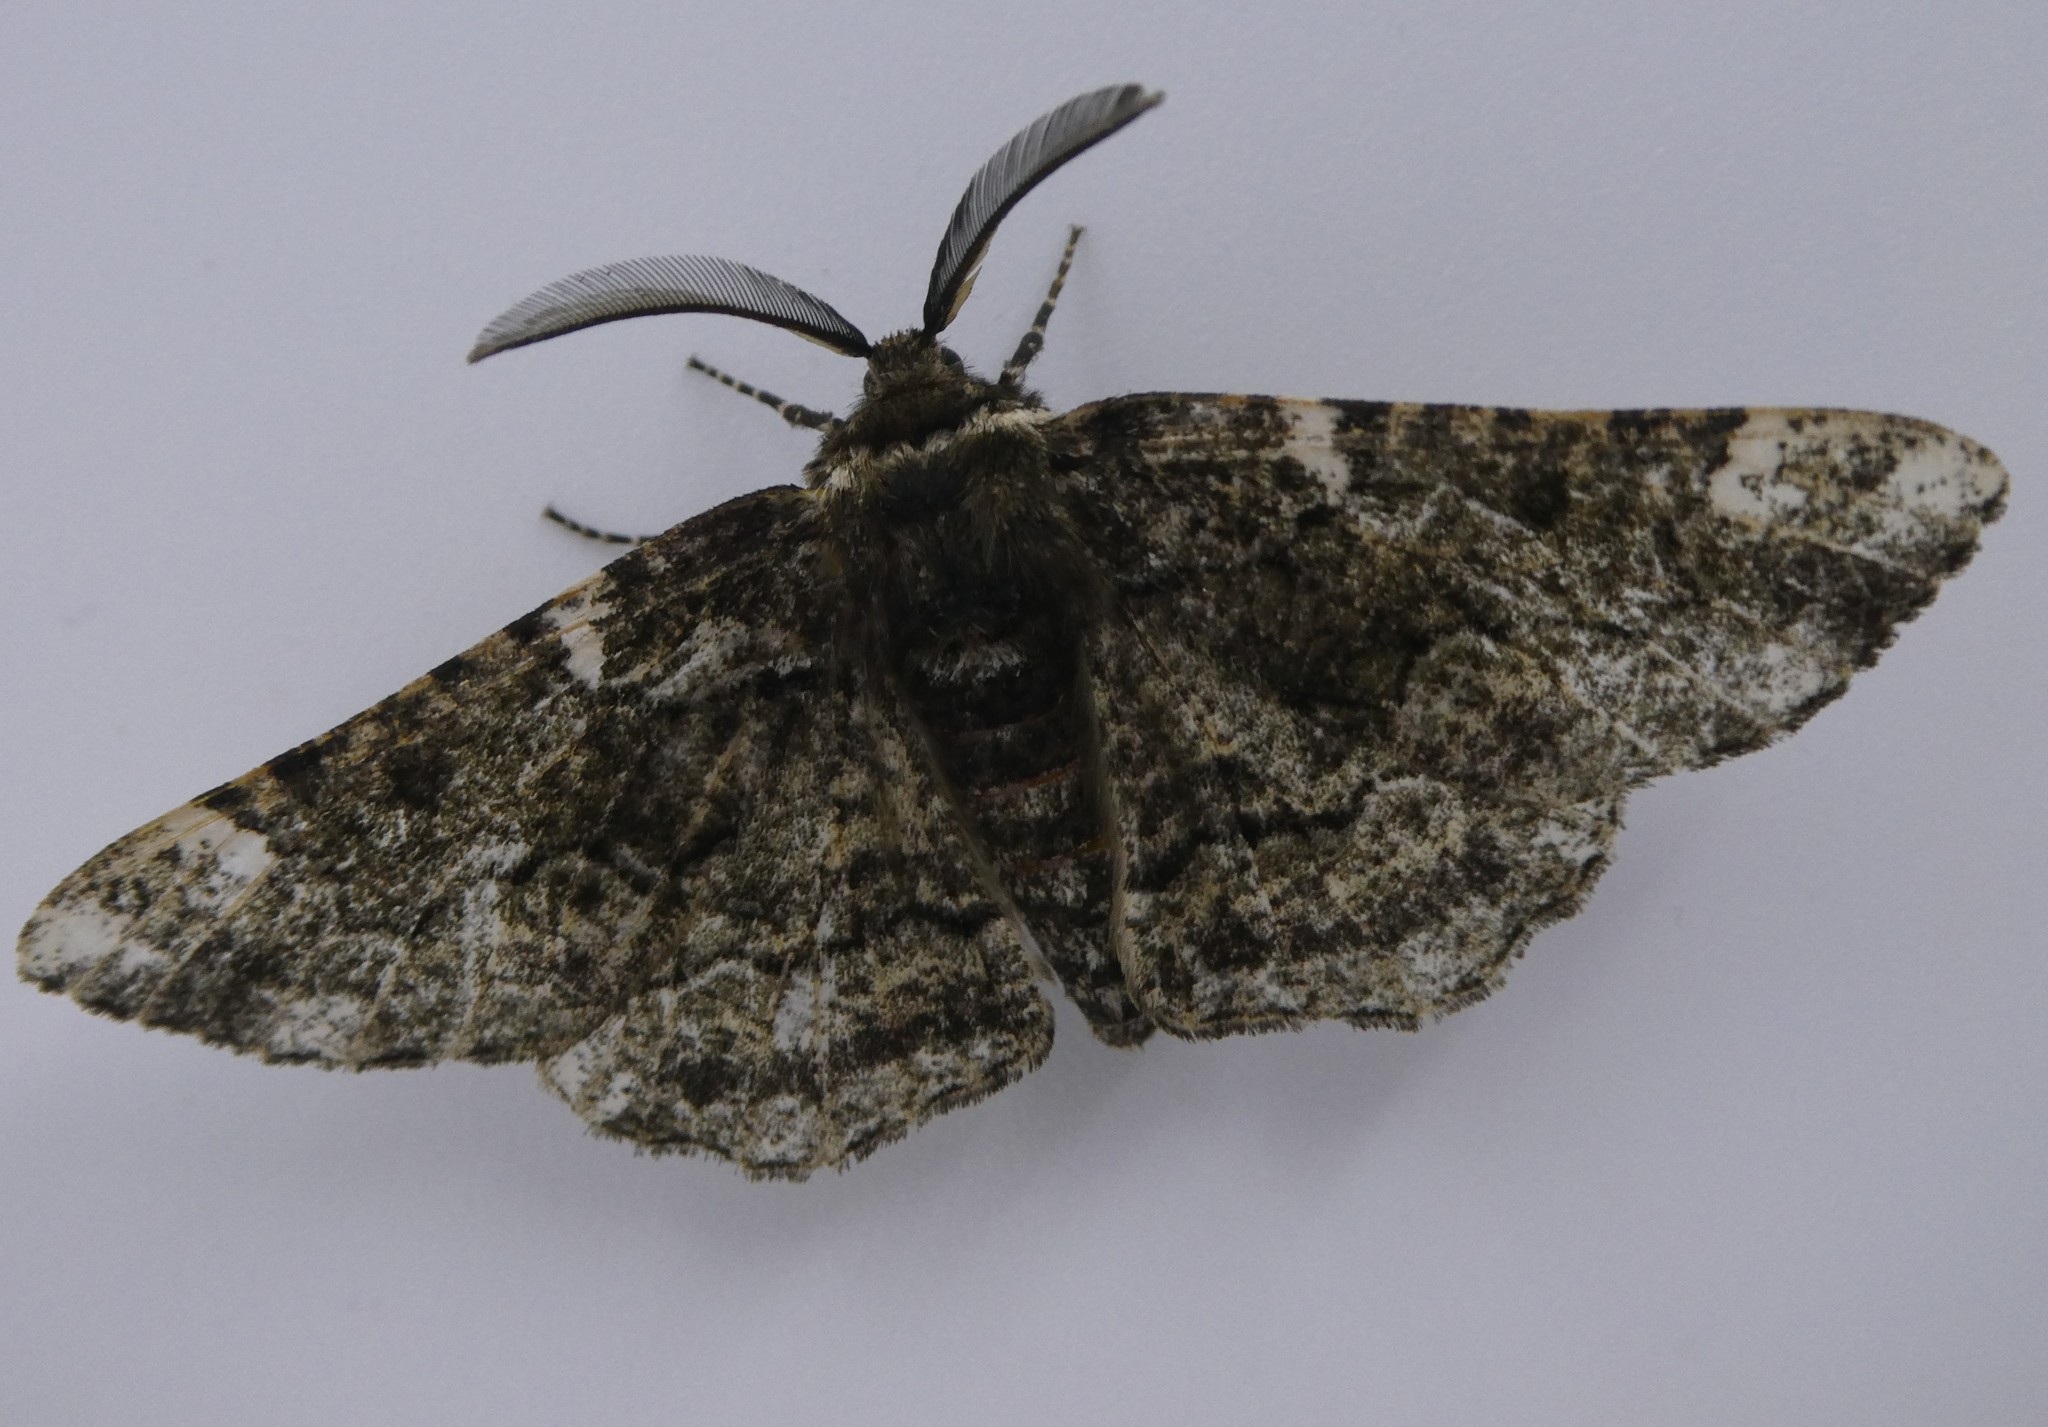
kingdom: Animalia
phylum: Arthropoda
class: Insecta
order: Lepidoptera
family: Geometridae
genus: Phaeoura
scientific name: Phaeoura quernaria
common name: Oak beauty
